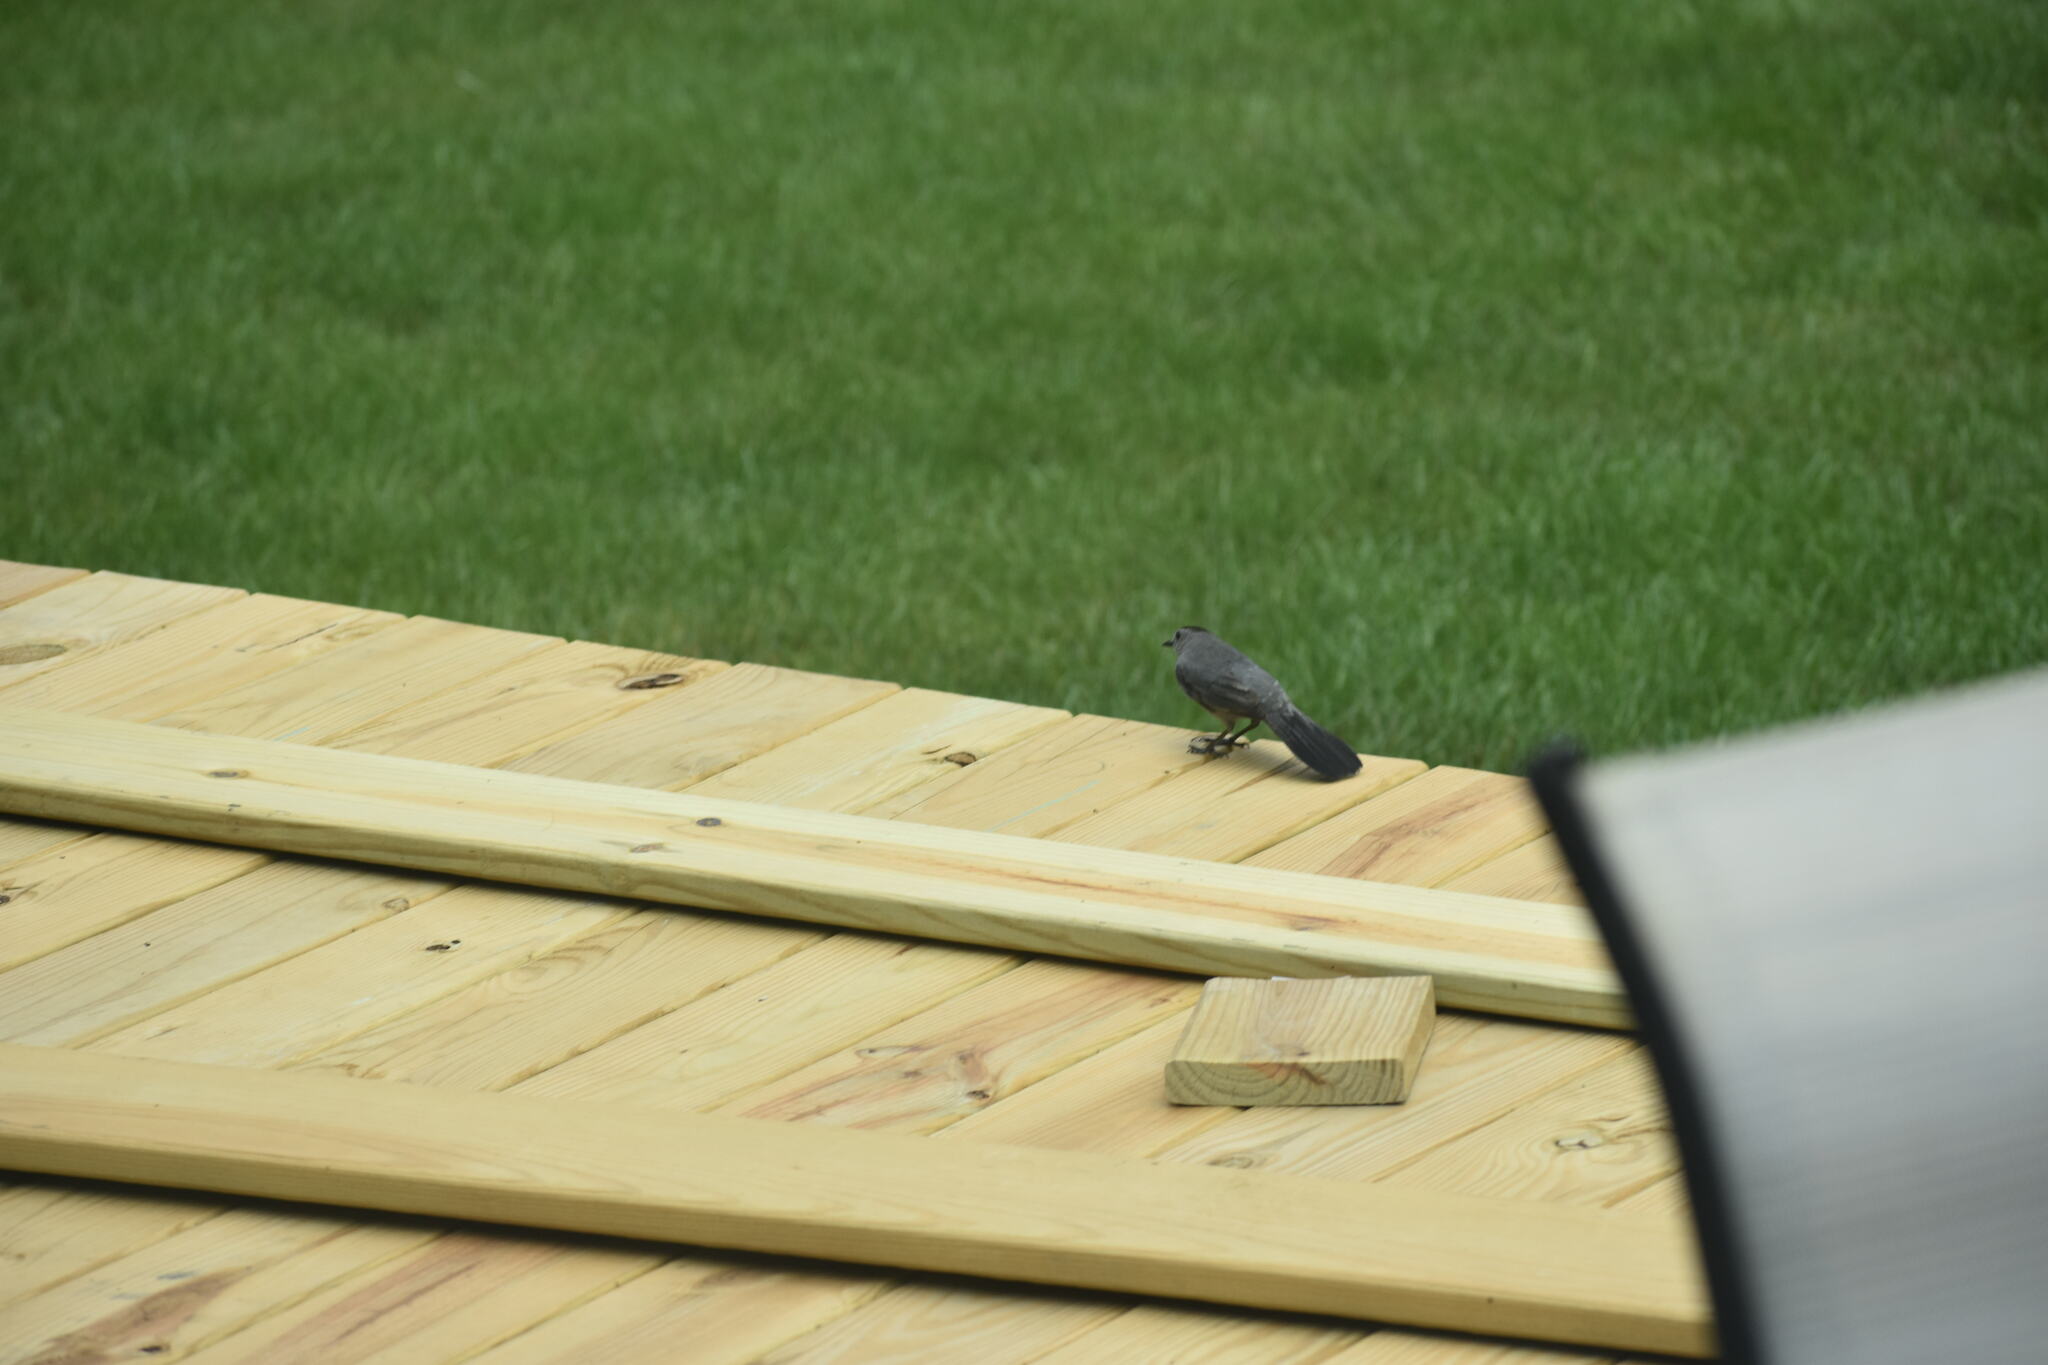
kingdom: Animalia
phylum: Chordata
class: Aves
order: Passeriformes
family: Mimidae
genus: Dumetella
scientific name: Dumetella carolinensis
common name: Gray catbird
